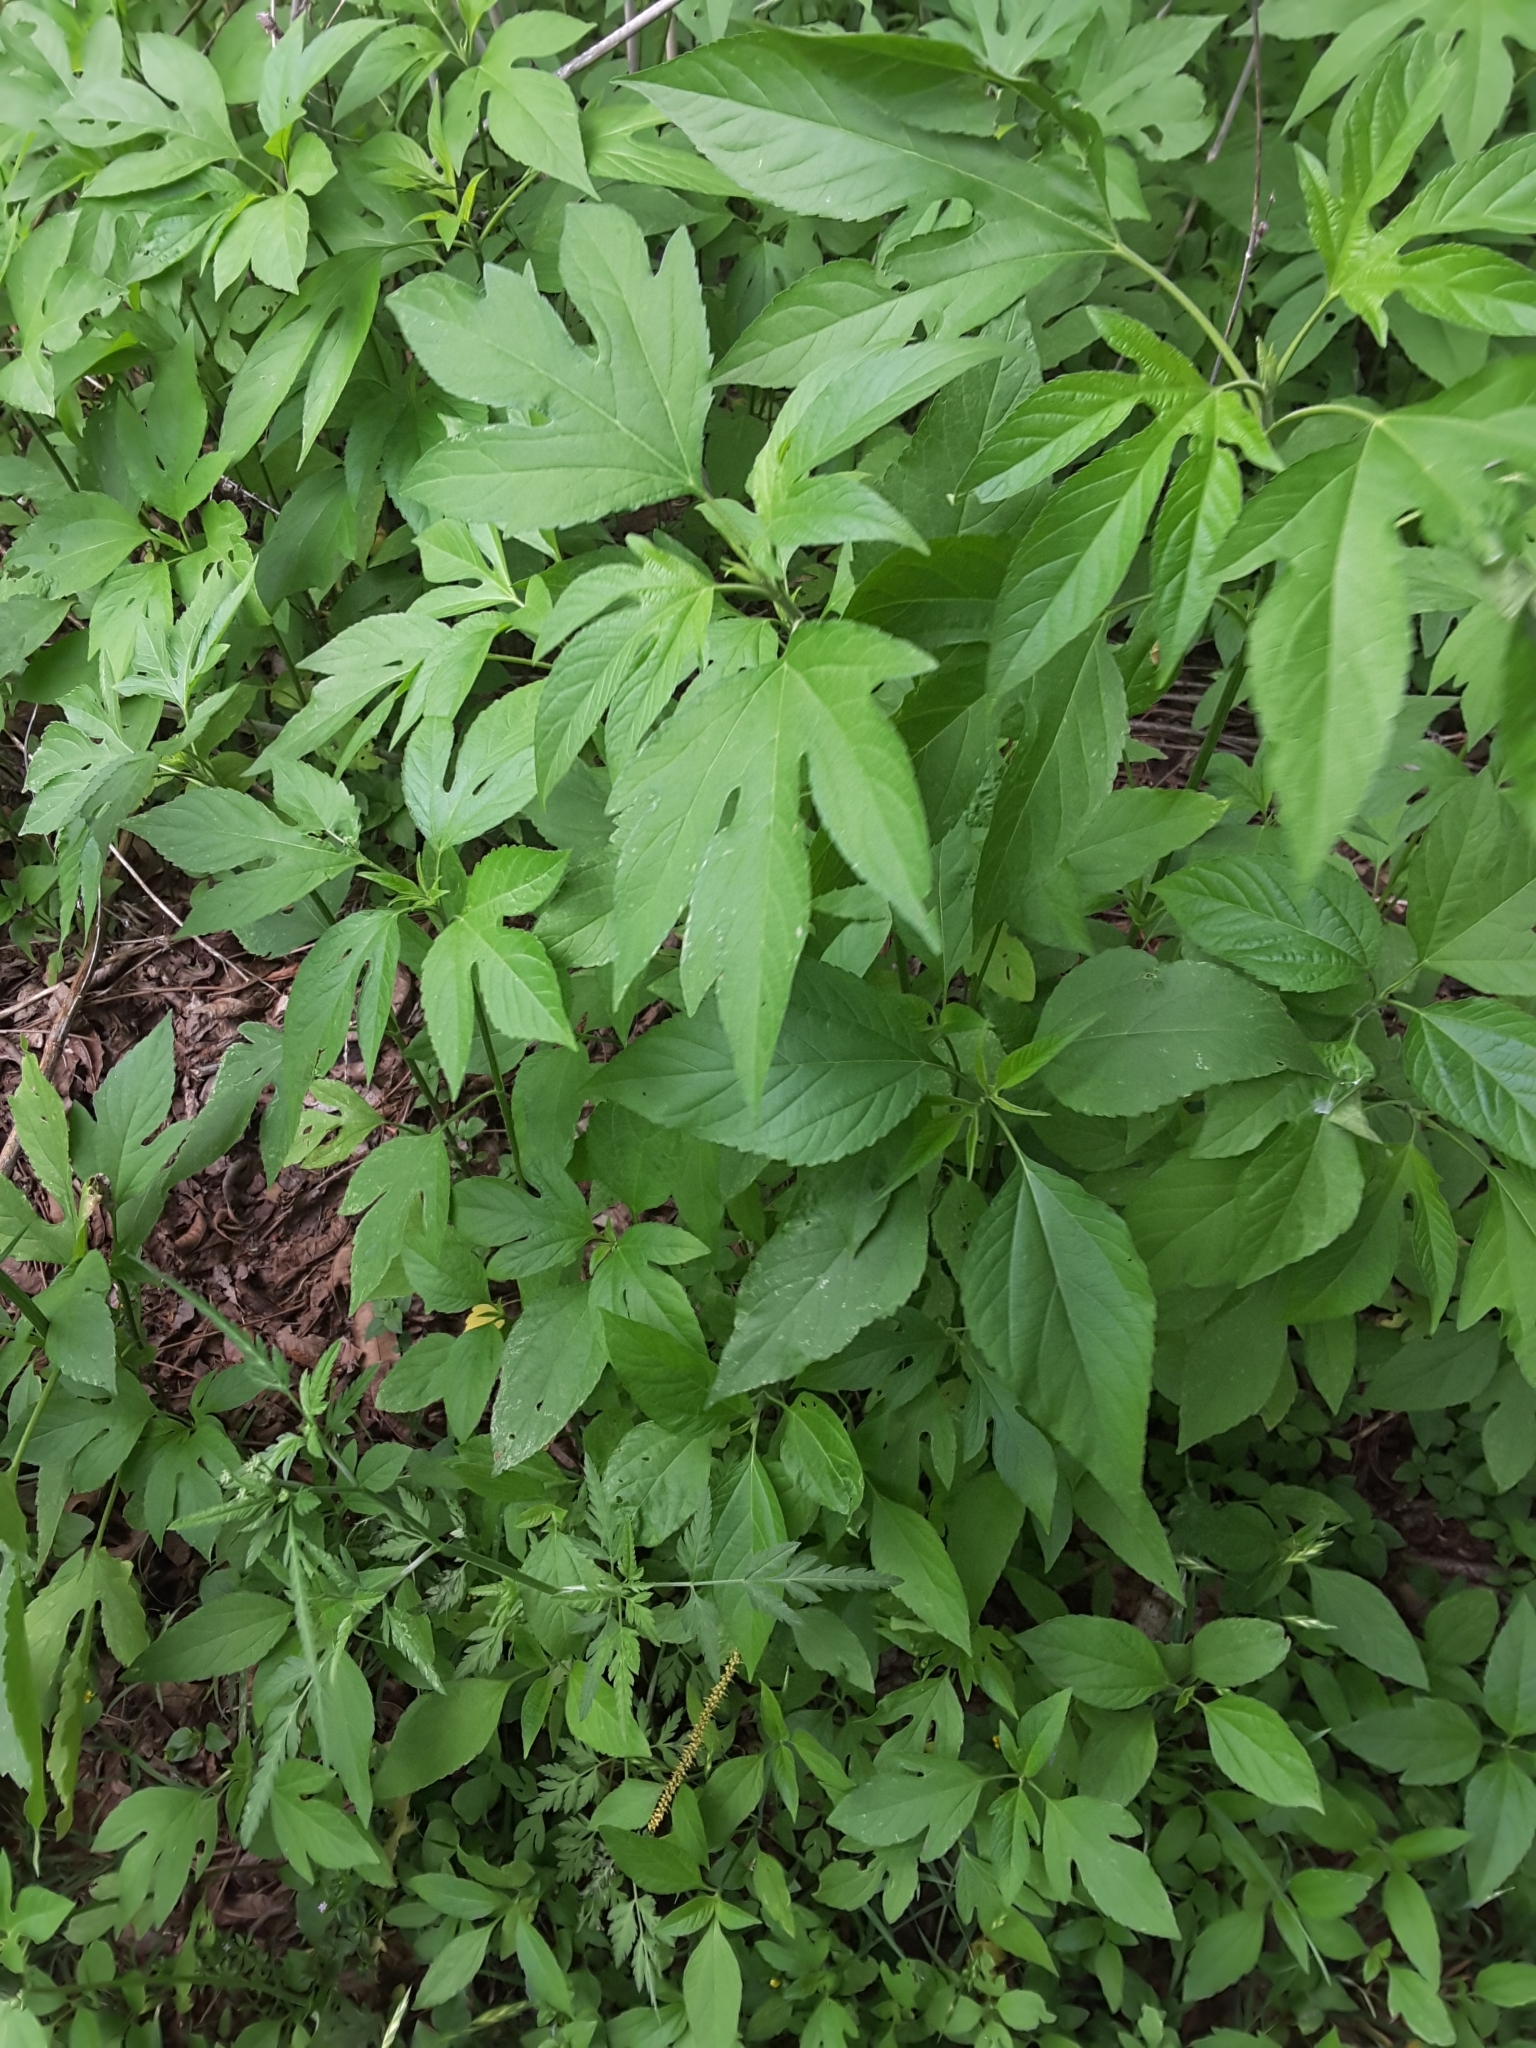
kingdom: Plantae
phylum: Tracheophyta
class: Magnoliopsida
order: Asterales
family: Asteraceae
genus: Ambrosia
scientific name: Ambrosia trifida
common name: Giant ragweed
